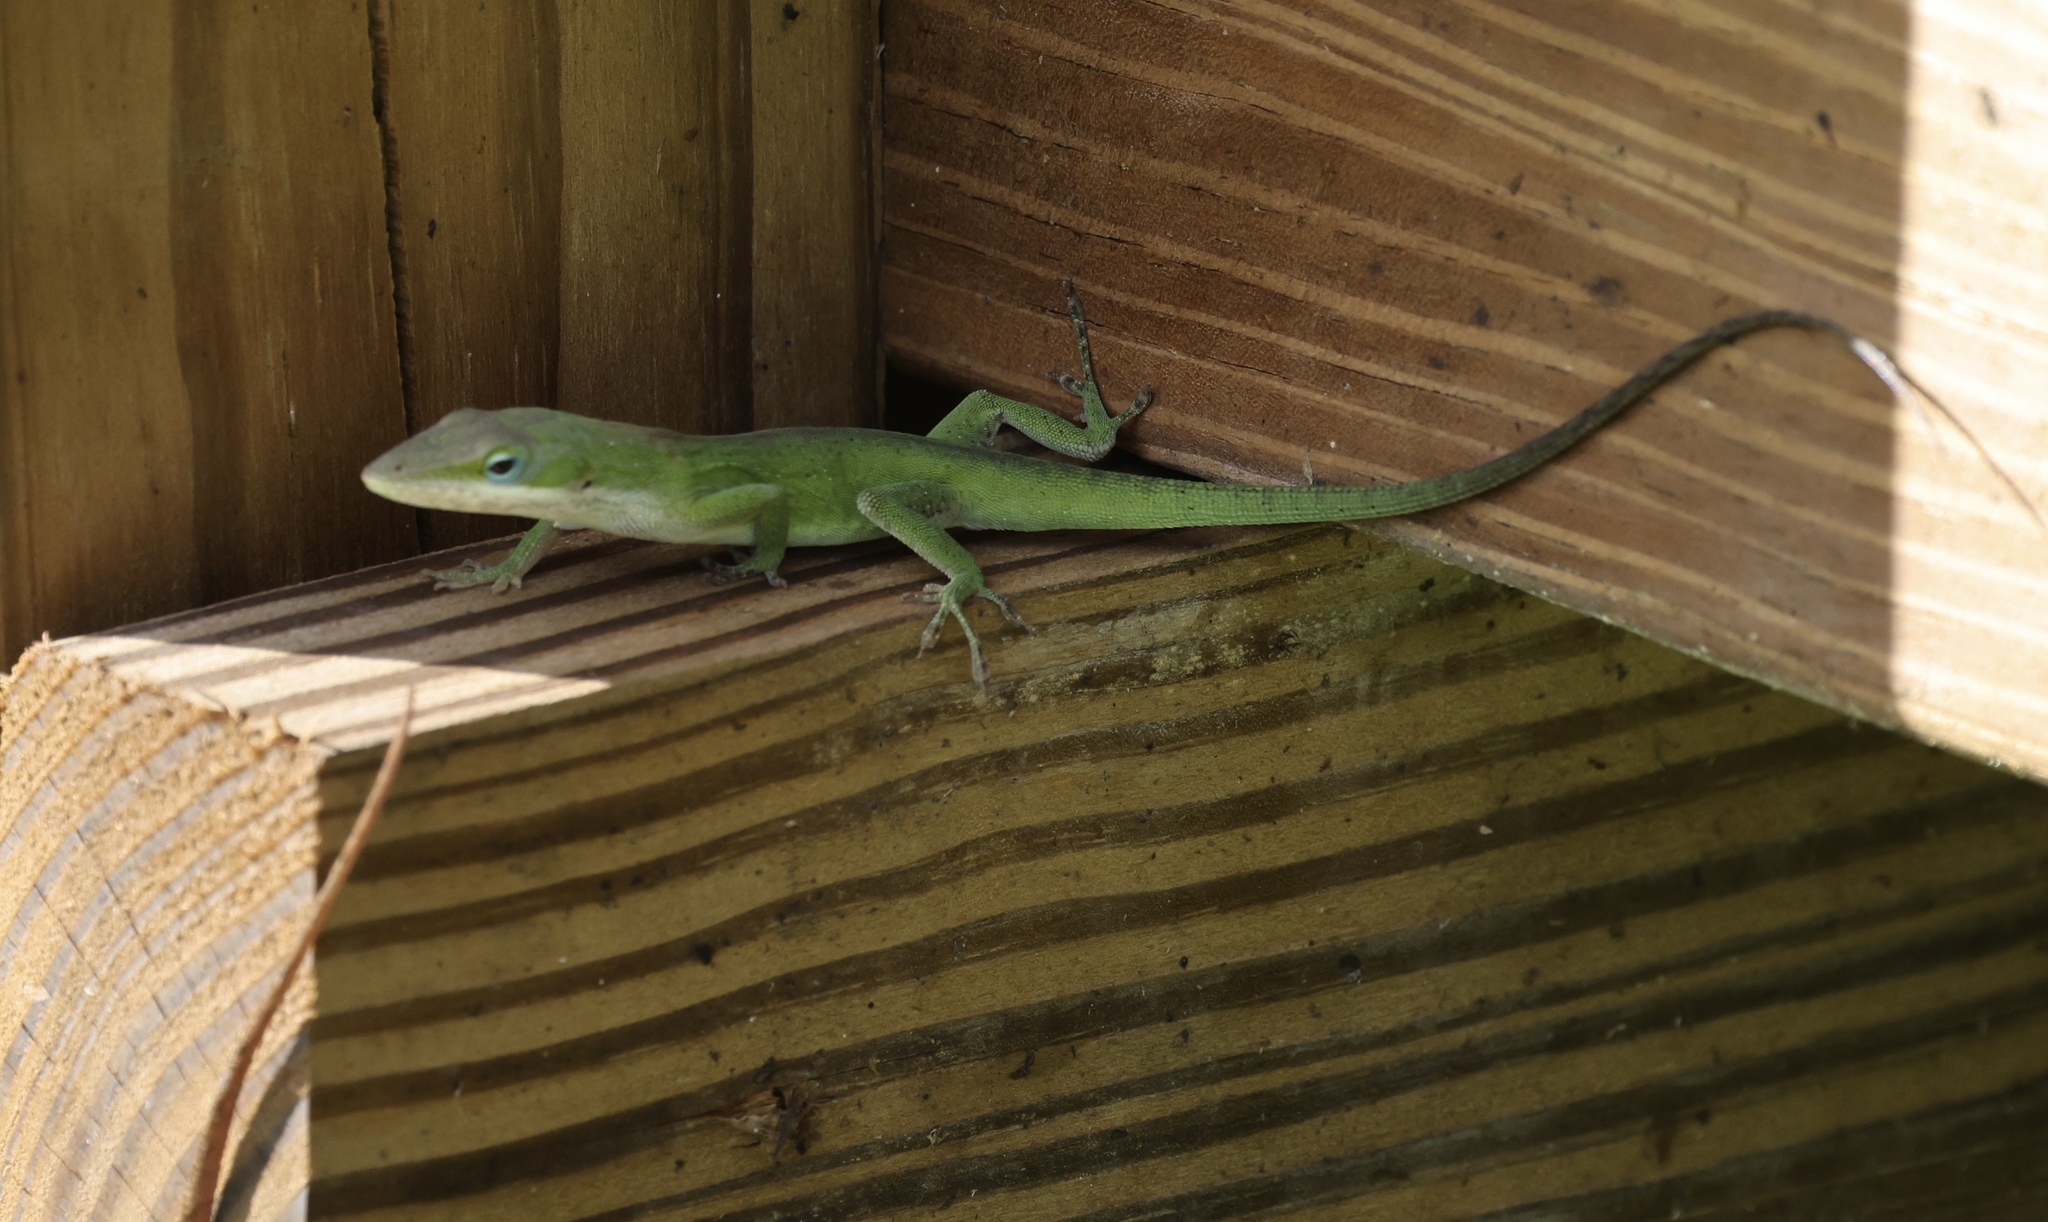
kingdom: Animalia
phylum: Chordata
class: Squamata
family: Dactyloidae
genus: Anolis
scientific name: Anolis carolinensis
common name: Green anole
